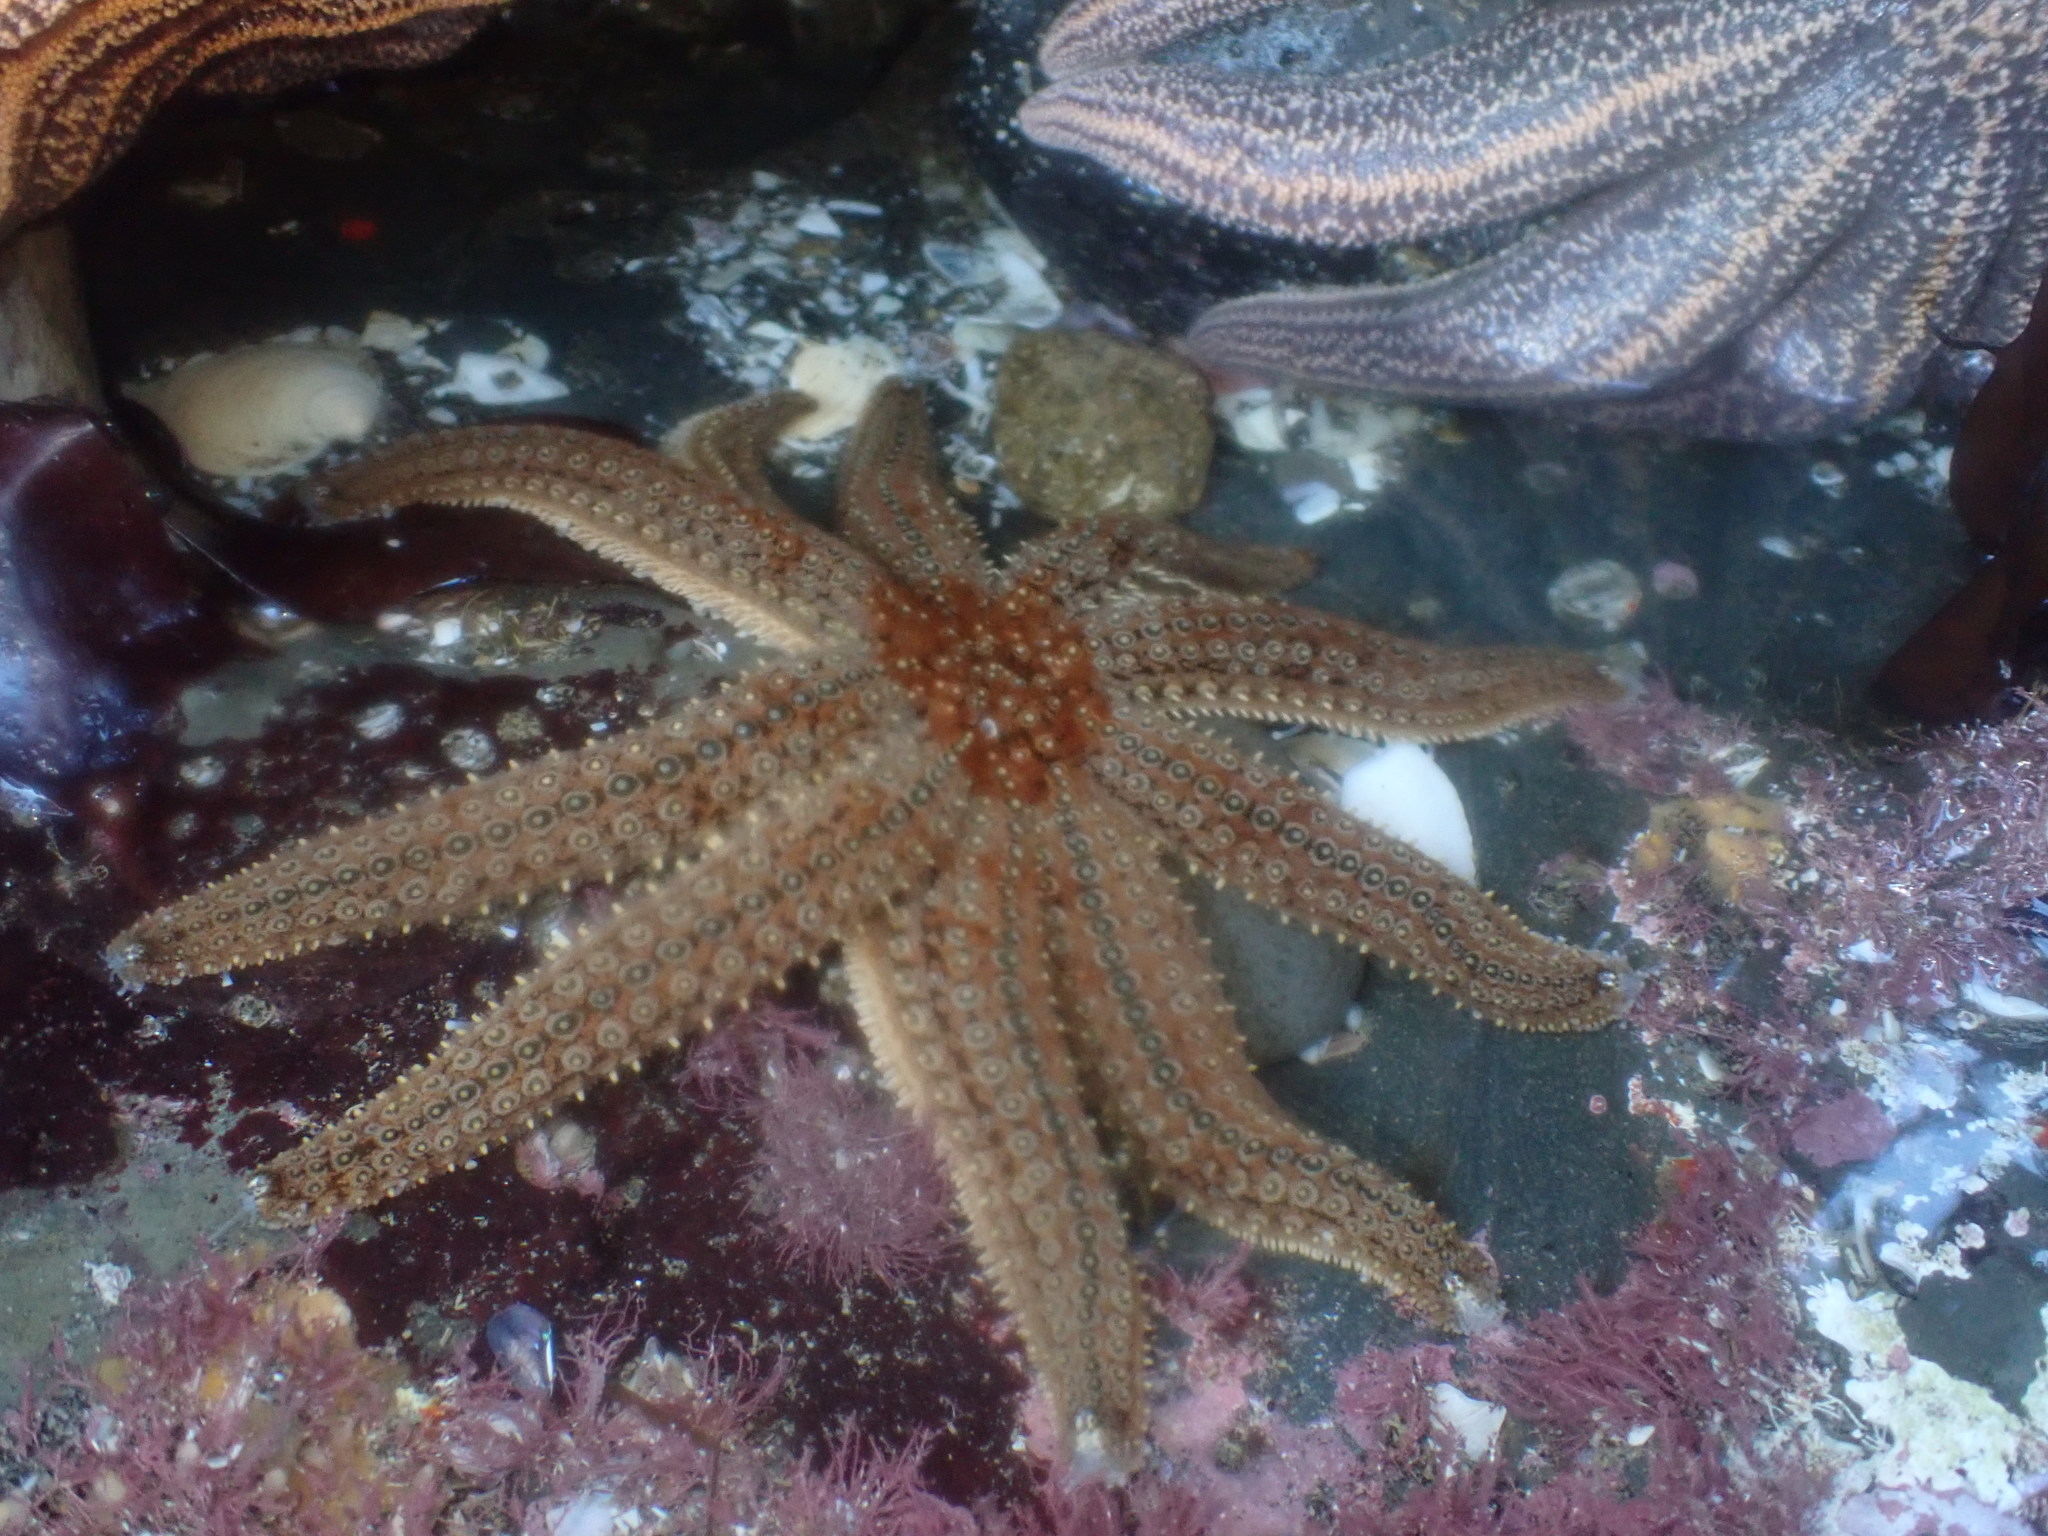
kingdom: Animalia
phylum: Echinodermata
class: Asteroidea
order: Forcipulatida
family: Asteriidae
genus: Coscinasterias
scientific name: Coscinasterias muricata
